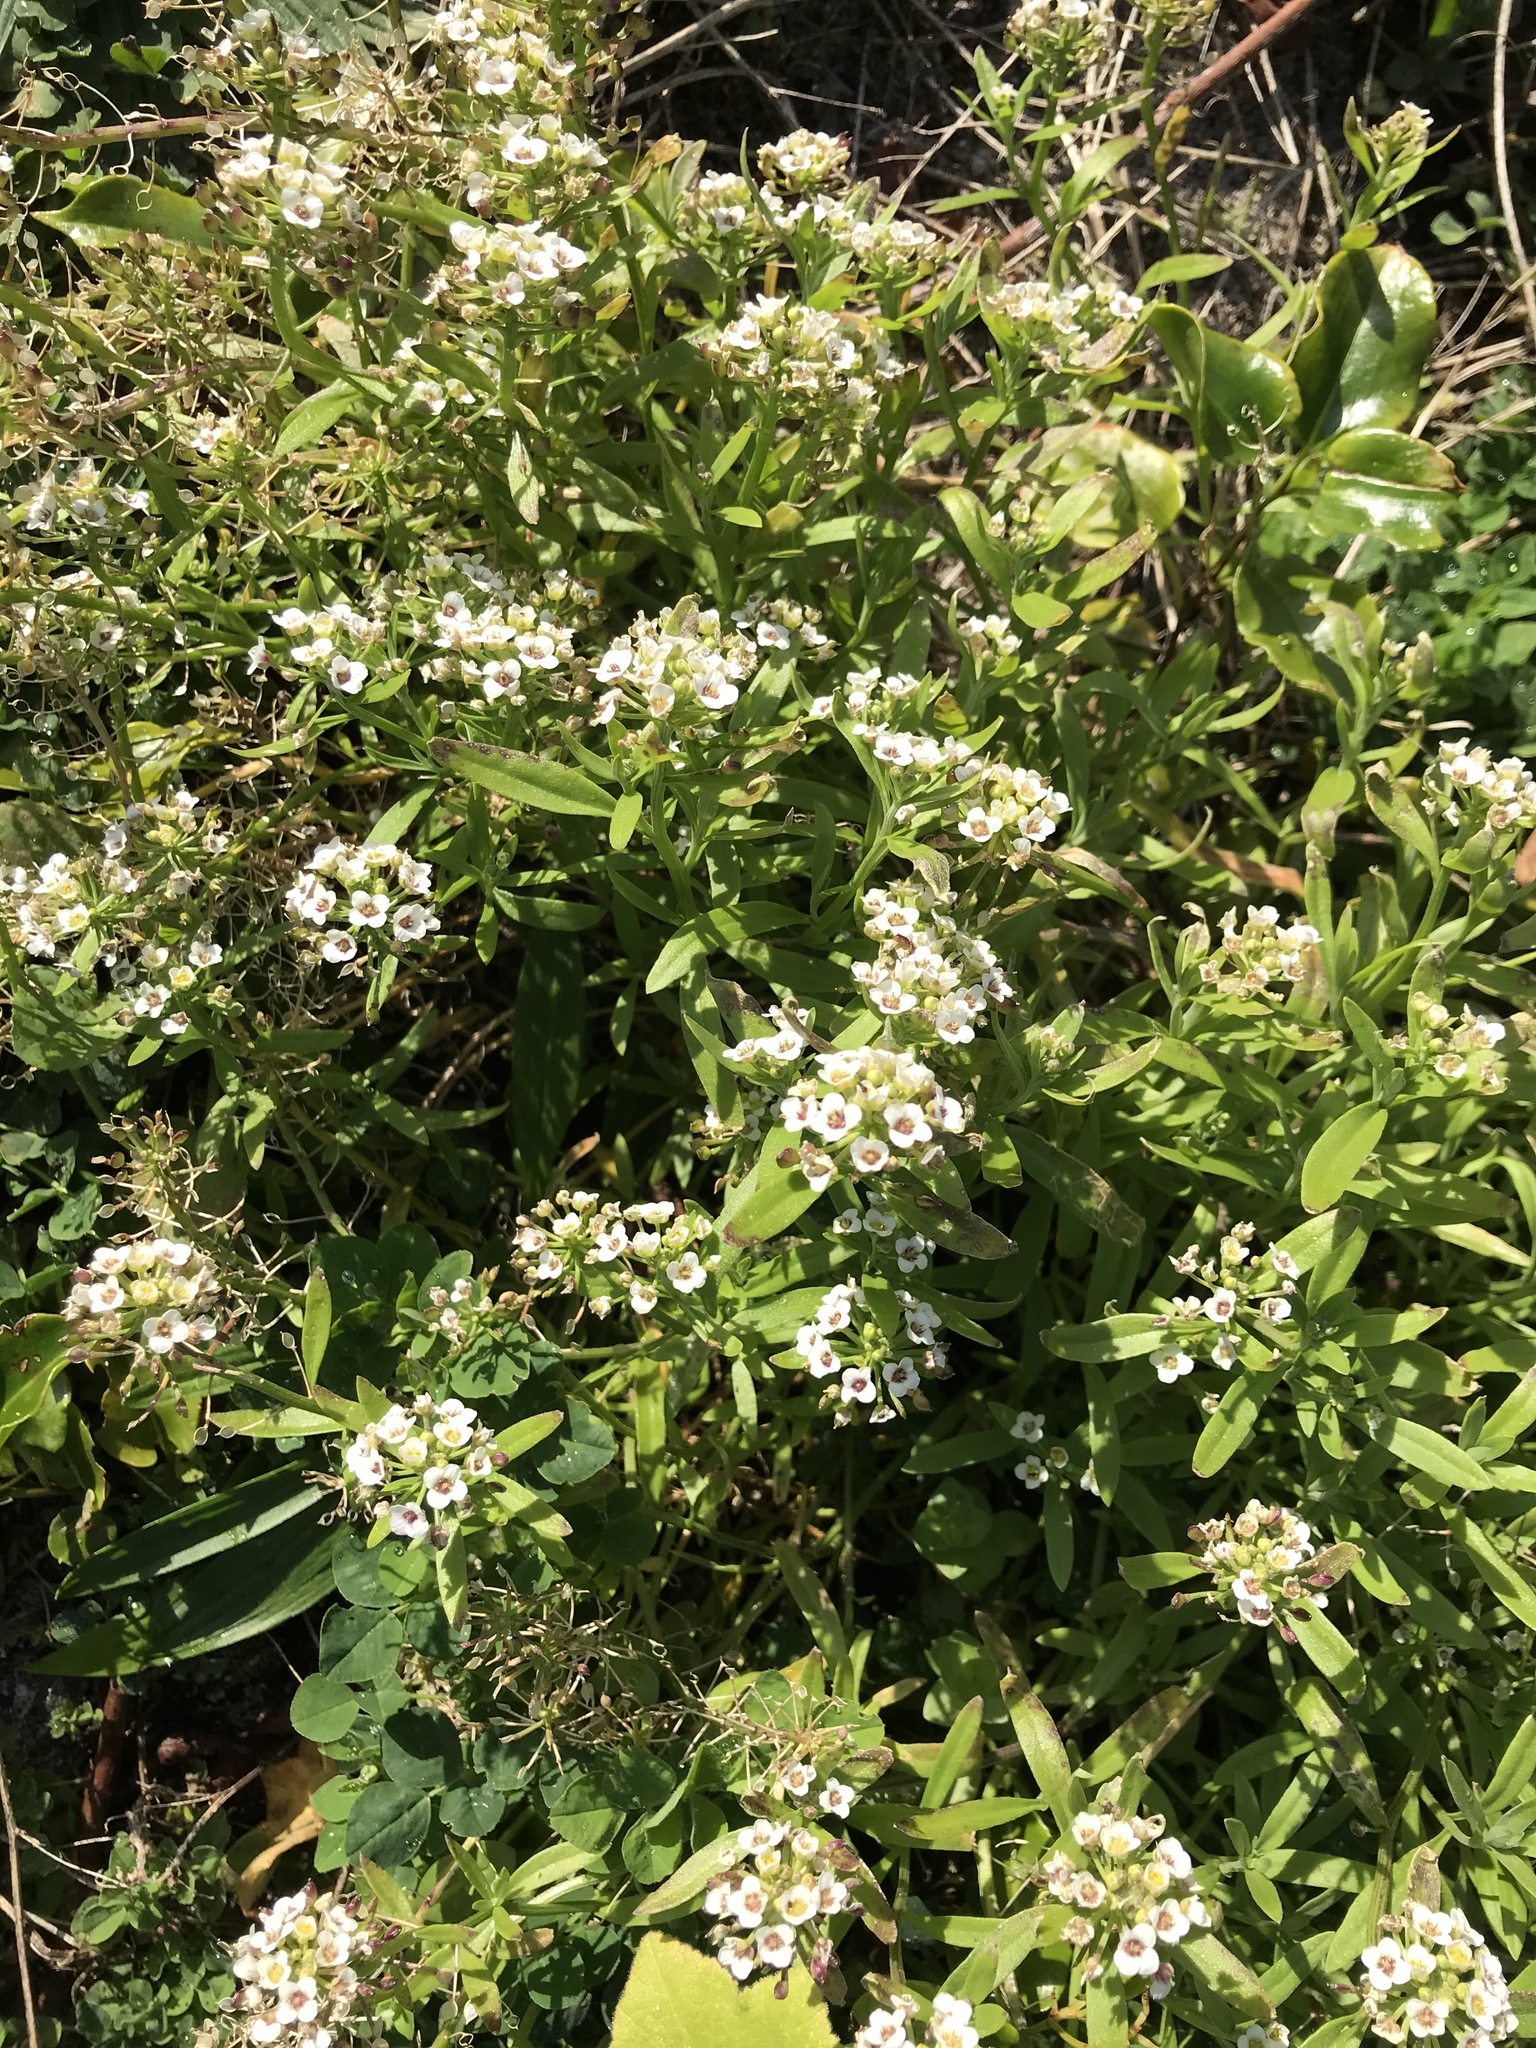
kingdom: Plantae
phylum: Tracheophyta
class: Magnoliopsida
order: Brassicales
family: Brassicaceae
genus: Lobularia
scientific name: Lobularia maritima
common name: Sweet alison
